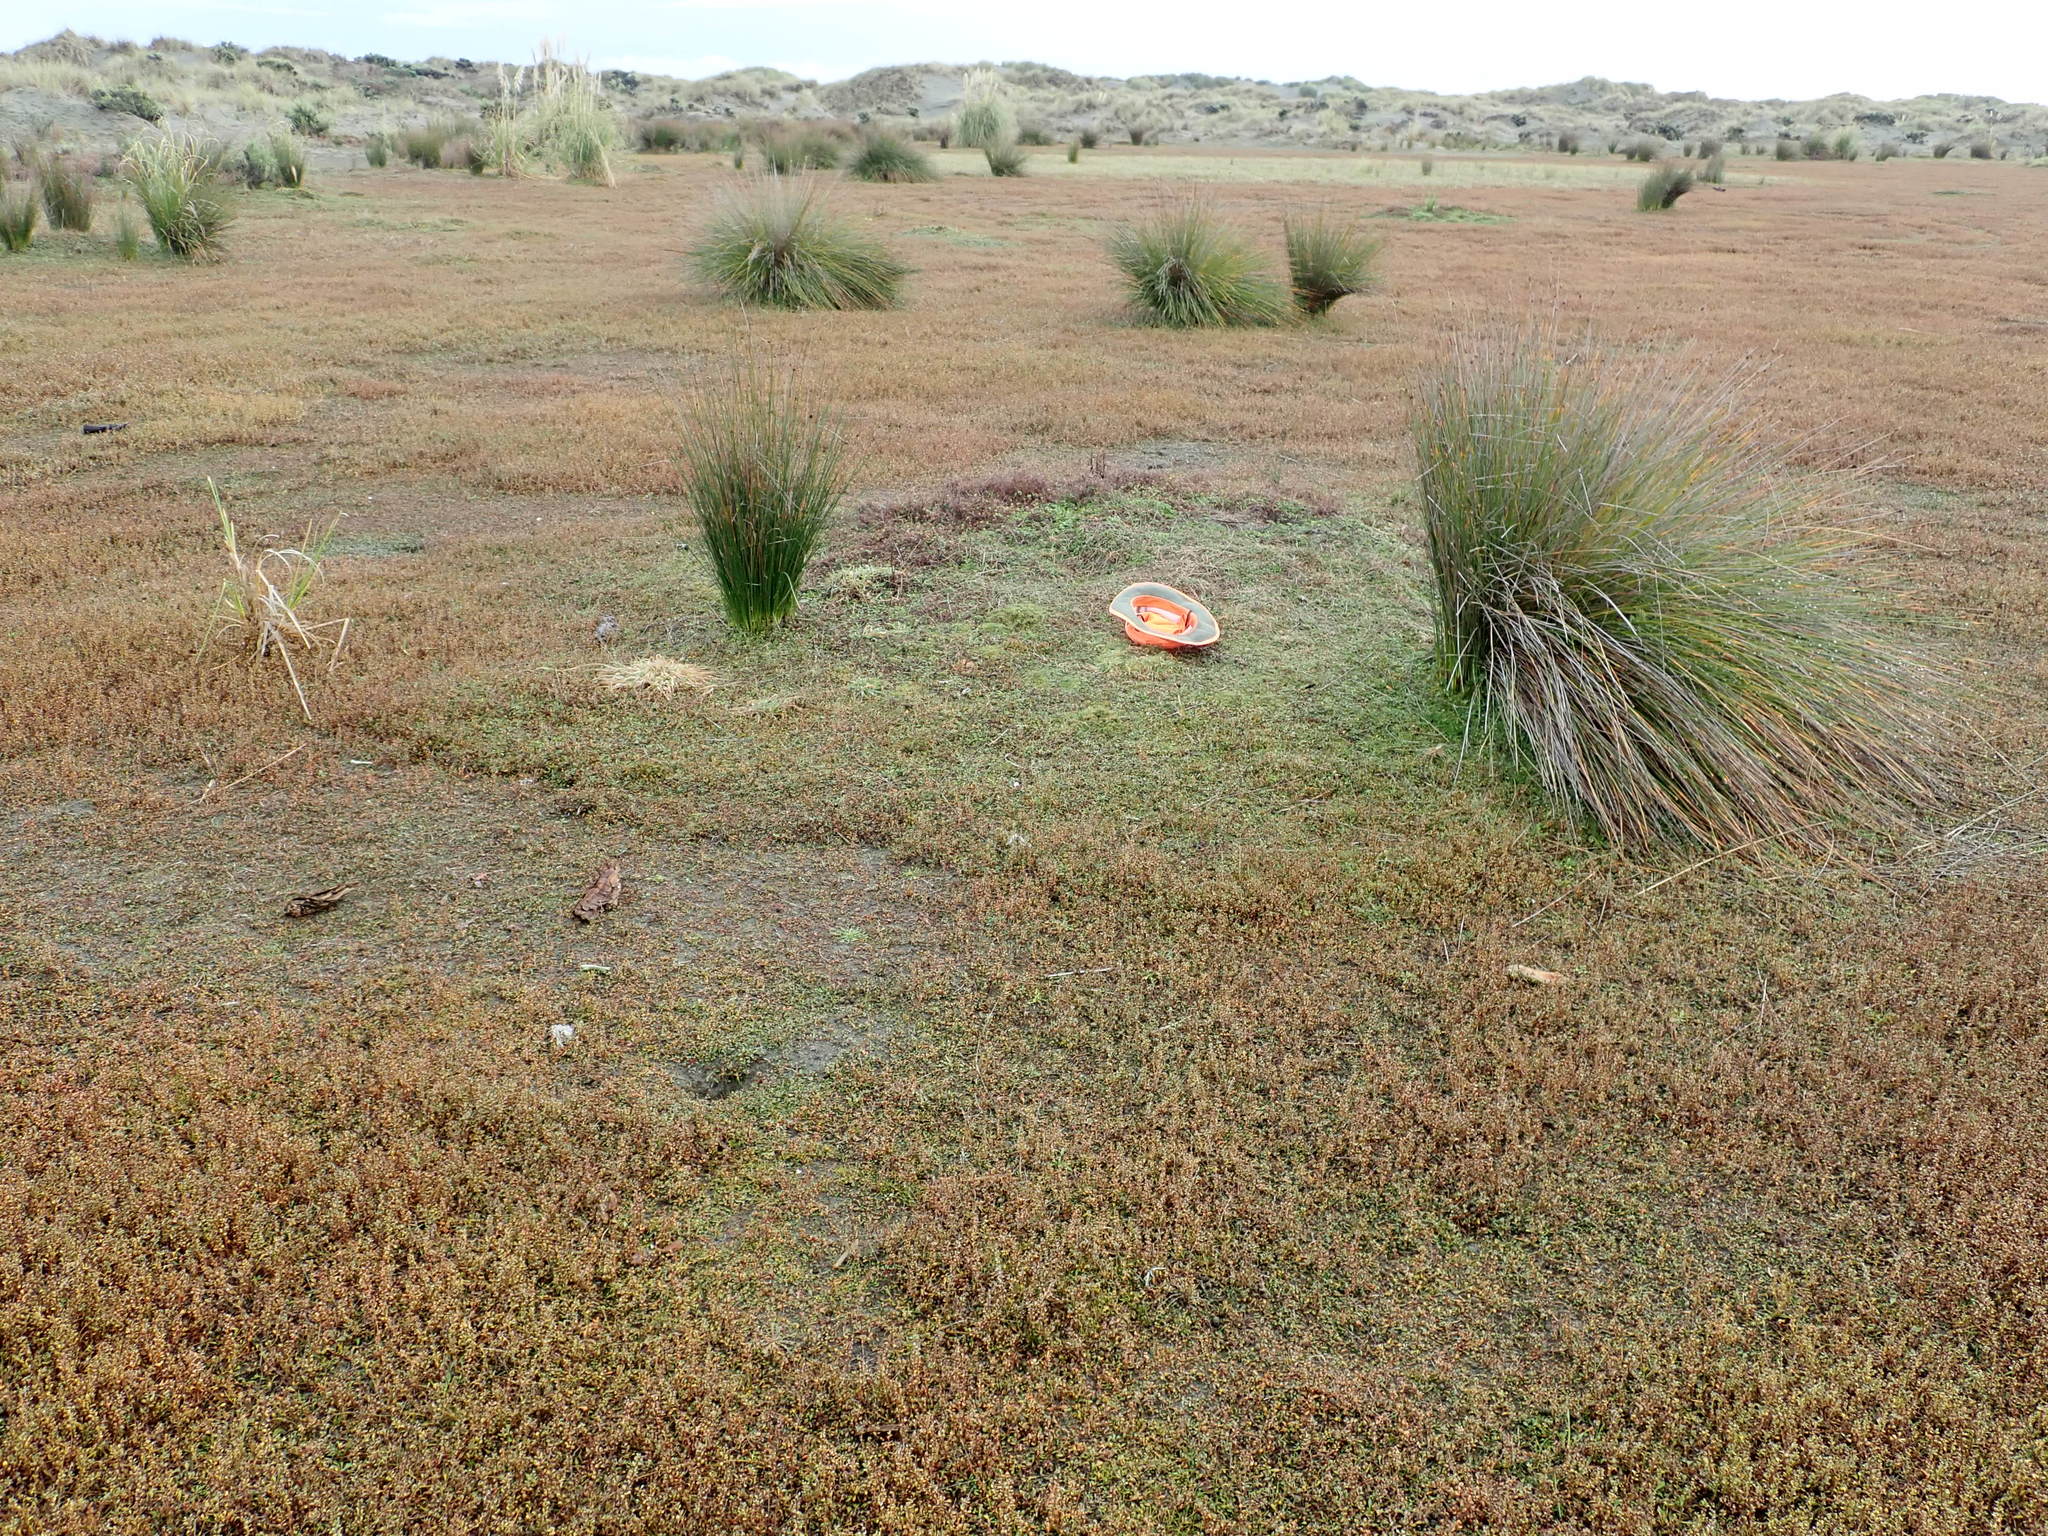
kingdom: Plantae
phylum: Tracheophyta
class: Magnoliopsida
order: Caryophyllales
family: Caryophyllaceae
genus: Sagina
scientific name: Sagina procumbens
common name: Procumbent pearlwort
